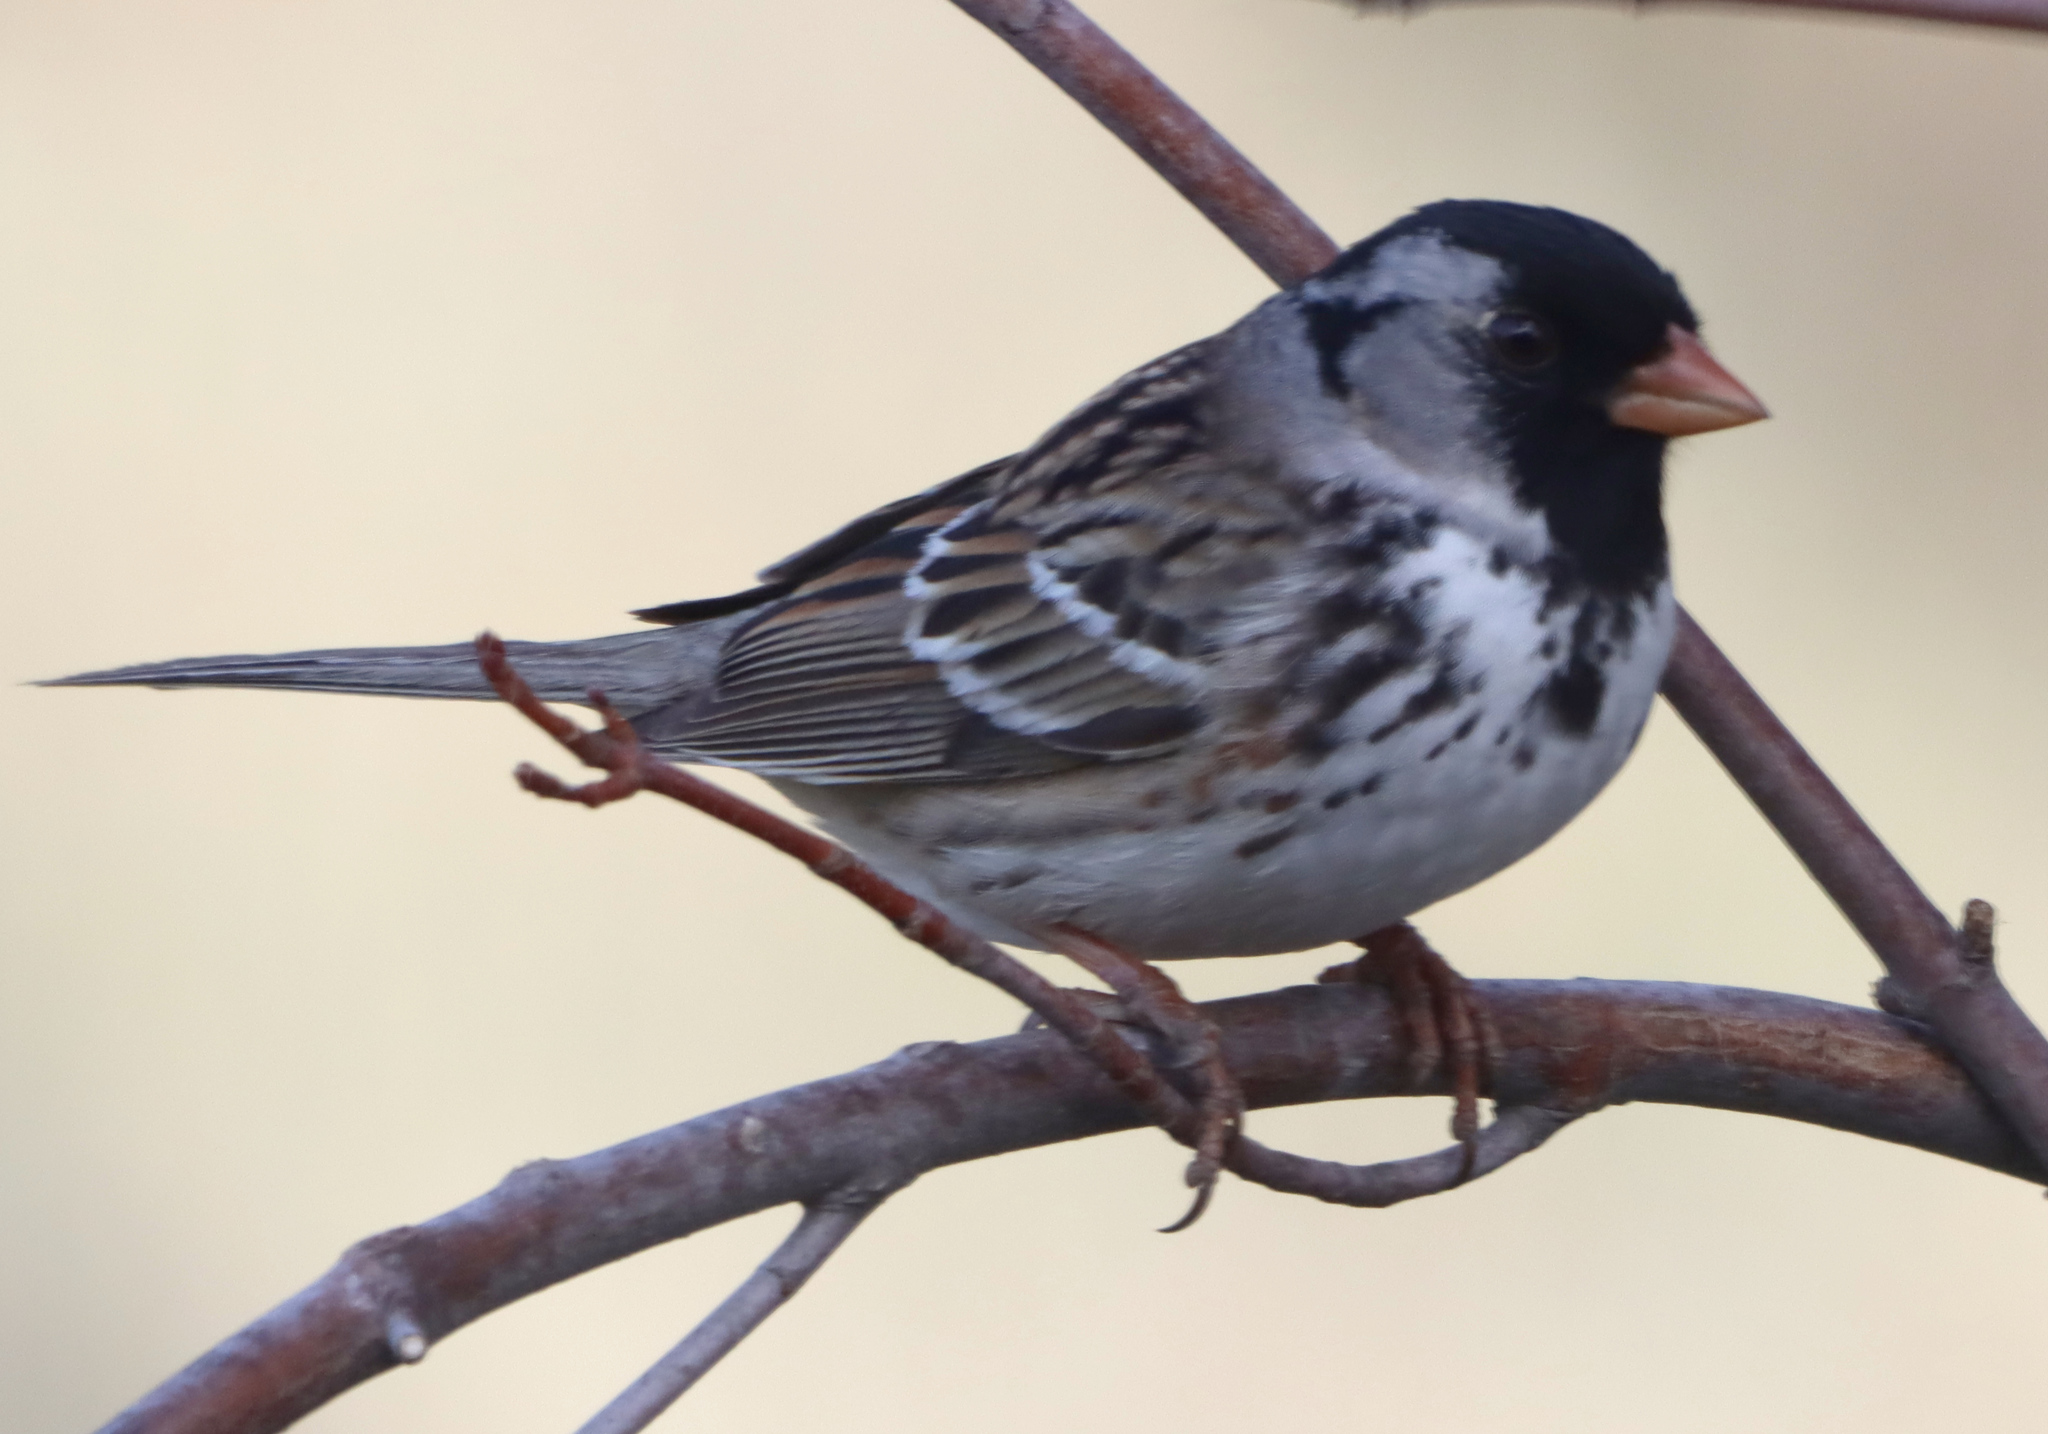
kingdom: Animalia
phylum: Chordata
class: Aves
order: Passeriformes
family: Passerellidae
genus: Zonotrichia
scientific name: Zonotrichia querula
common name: Harris's sparrow
